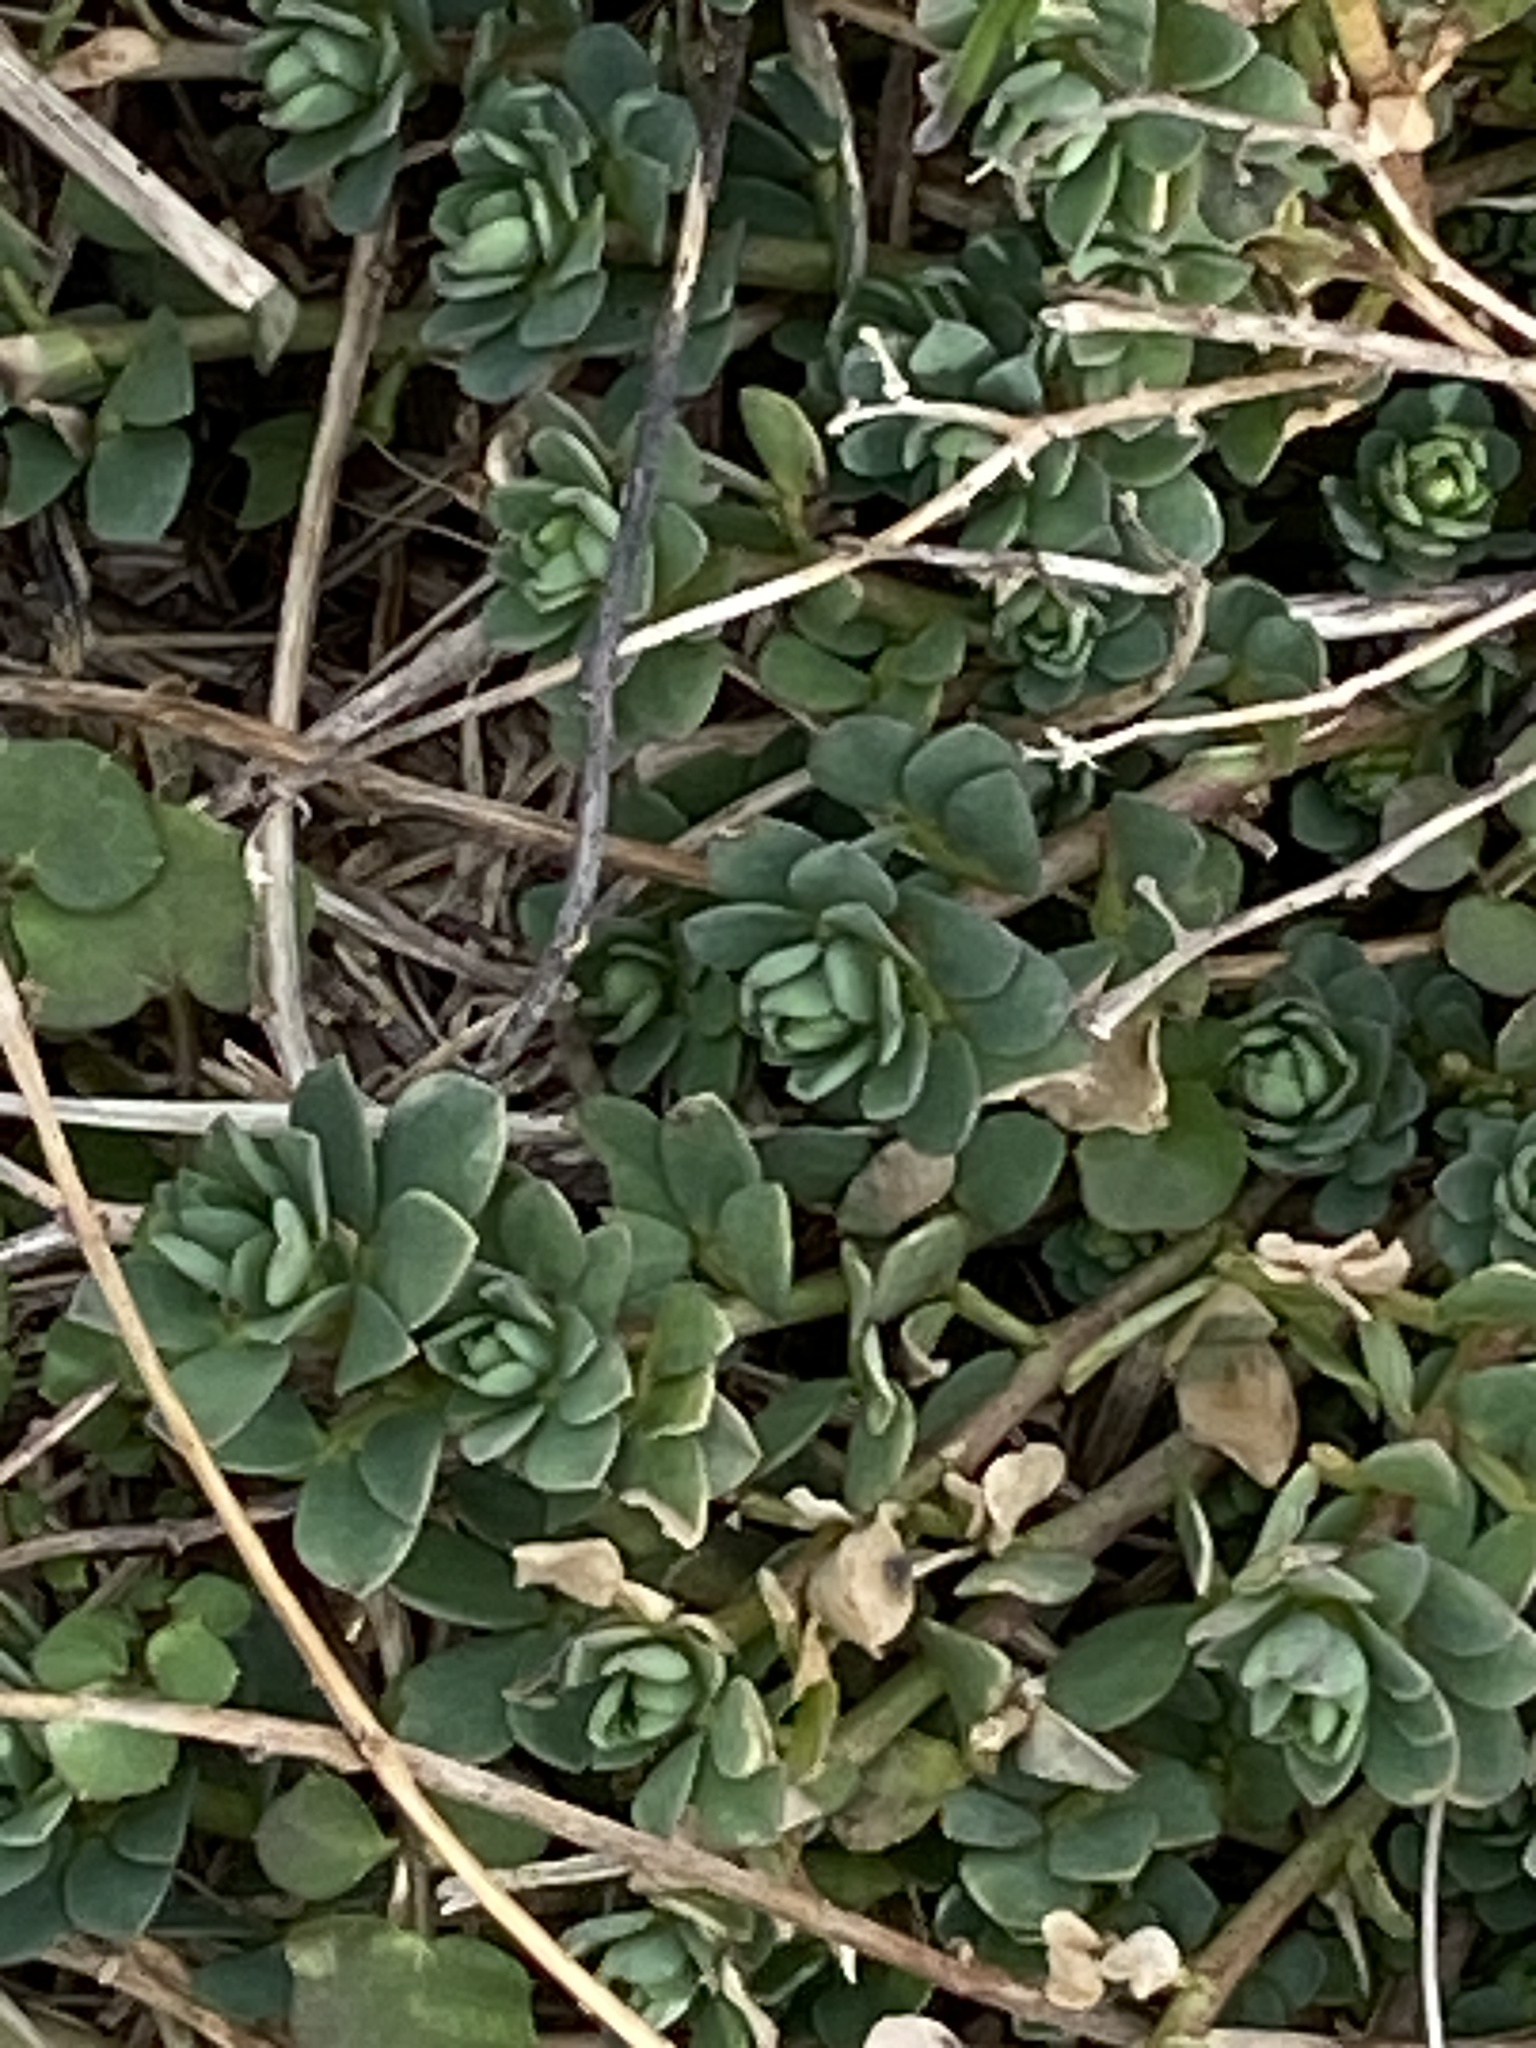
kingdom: Plantae
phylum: Tracheophyta
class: Magnoliopsida
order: Fabales
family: Fabaceae
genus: Lotus
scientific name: Lotus corniculatus
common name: Common bird's-foot-trefoil
